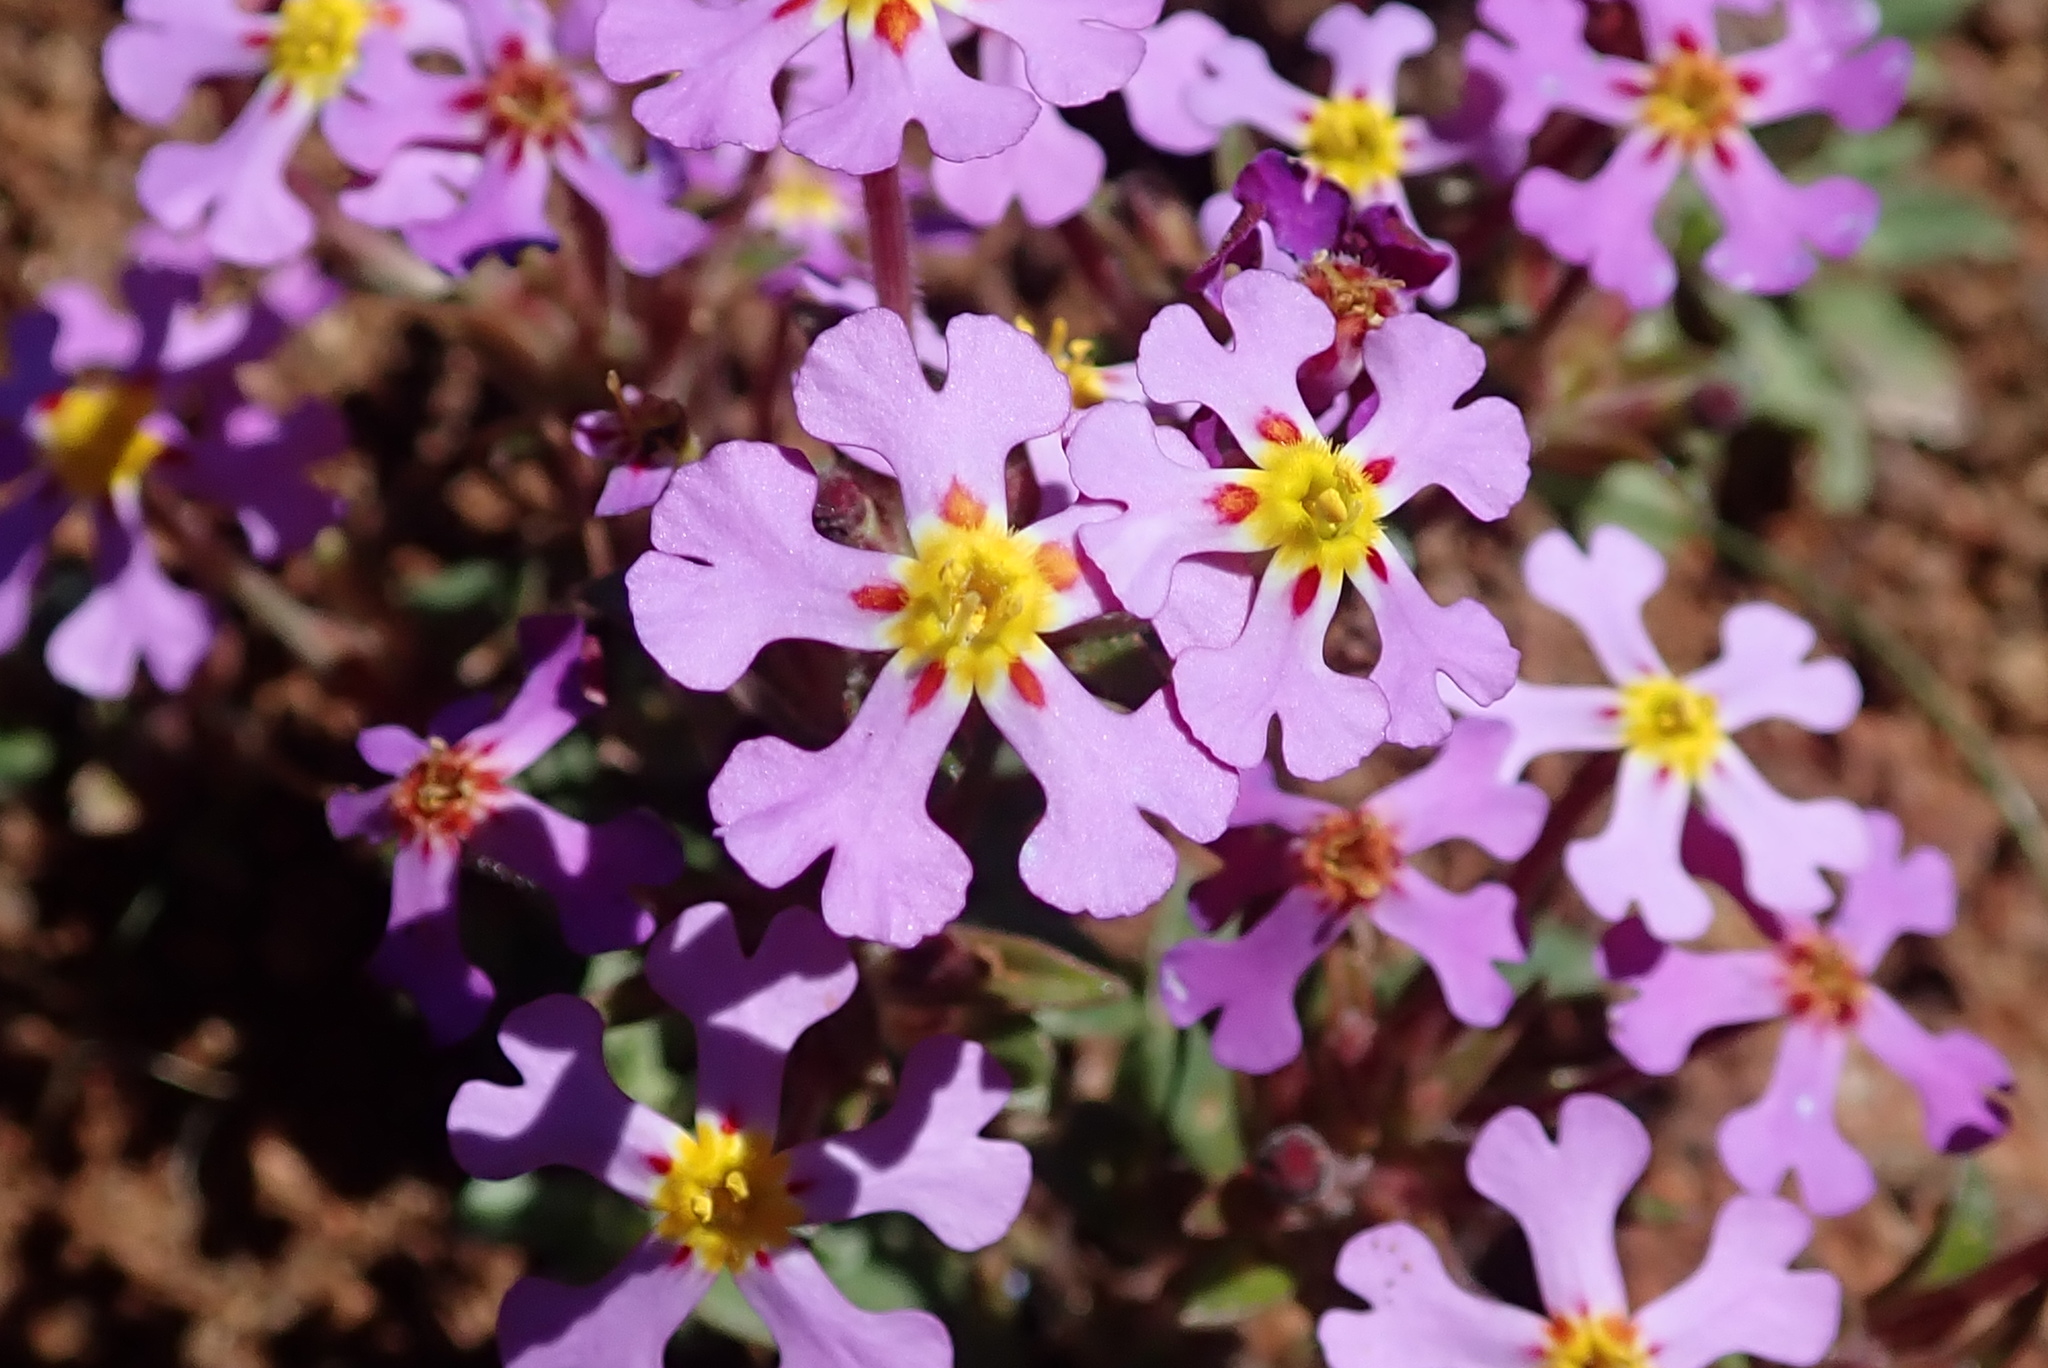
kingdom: Plantae
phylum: Tracheophyta
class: Magnoliopsida
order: Lamiales
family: Scrophulariaceae
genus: Zaluzianskya
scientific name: Zaluzianskya venusta
